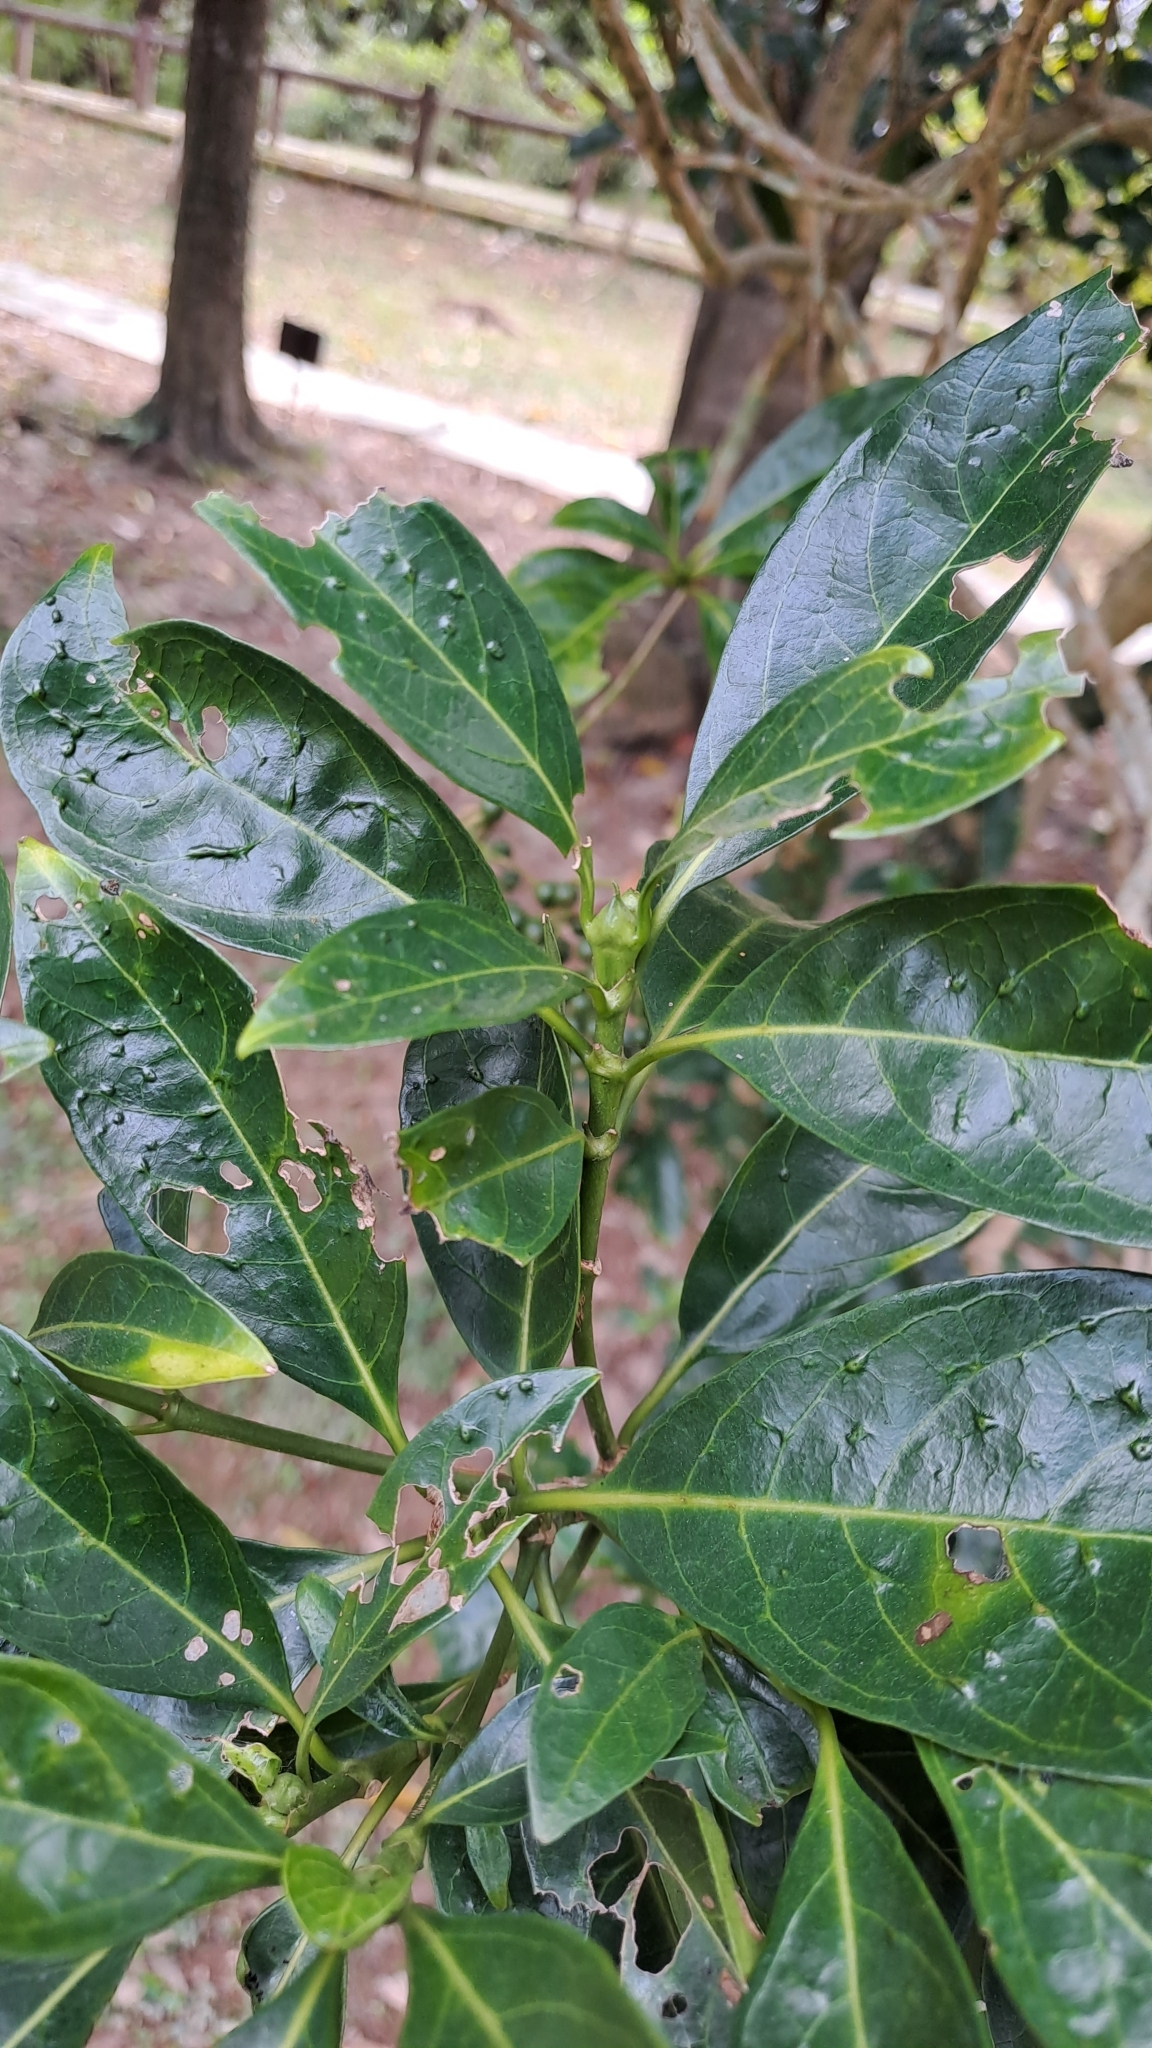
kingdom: Plantae
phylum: Tracheophyta
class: Magnoliopsida
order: Gentianales
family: Rubiaceae
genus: Pavetta
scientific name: Pavetta hongkongensis
